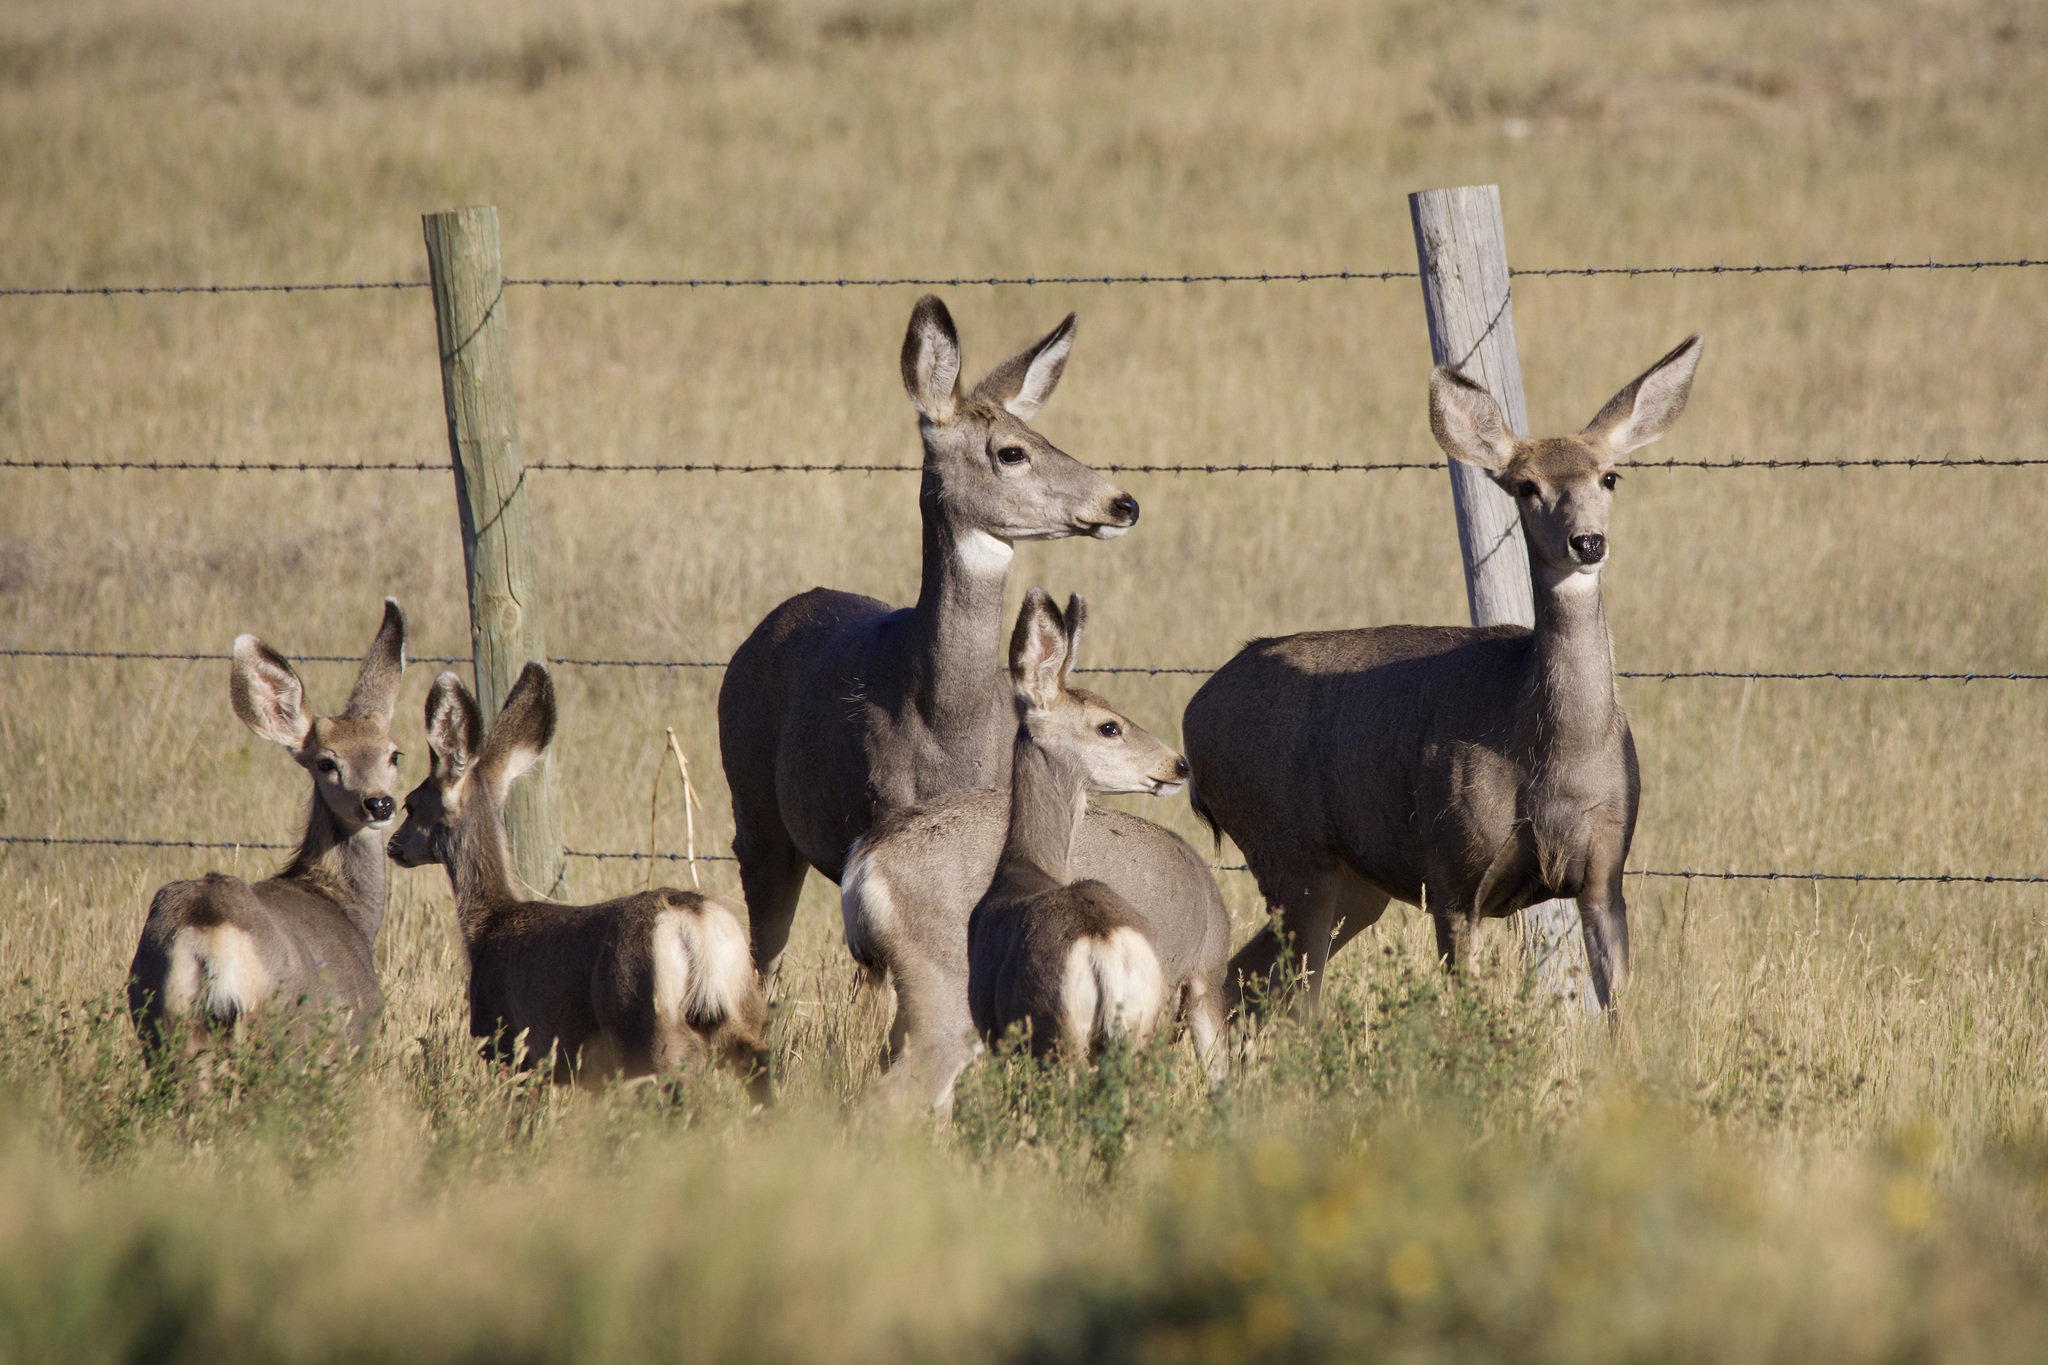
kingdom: Animalia
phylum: Chordata
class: Mammalia
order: Artiodactyla
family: Cervidae
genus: Odocoileus
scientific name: Odocoileus hemionus
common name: Mule deer
